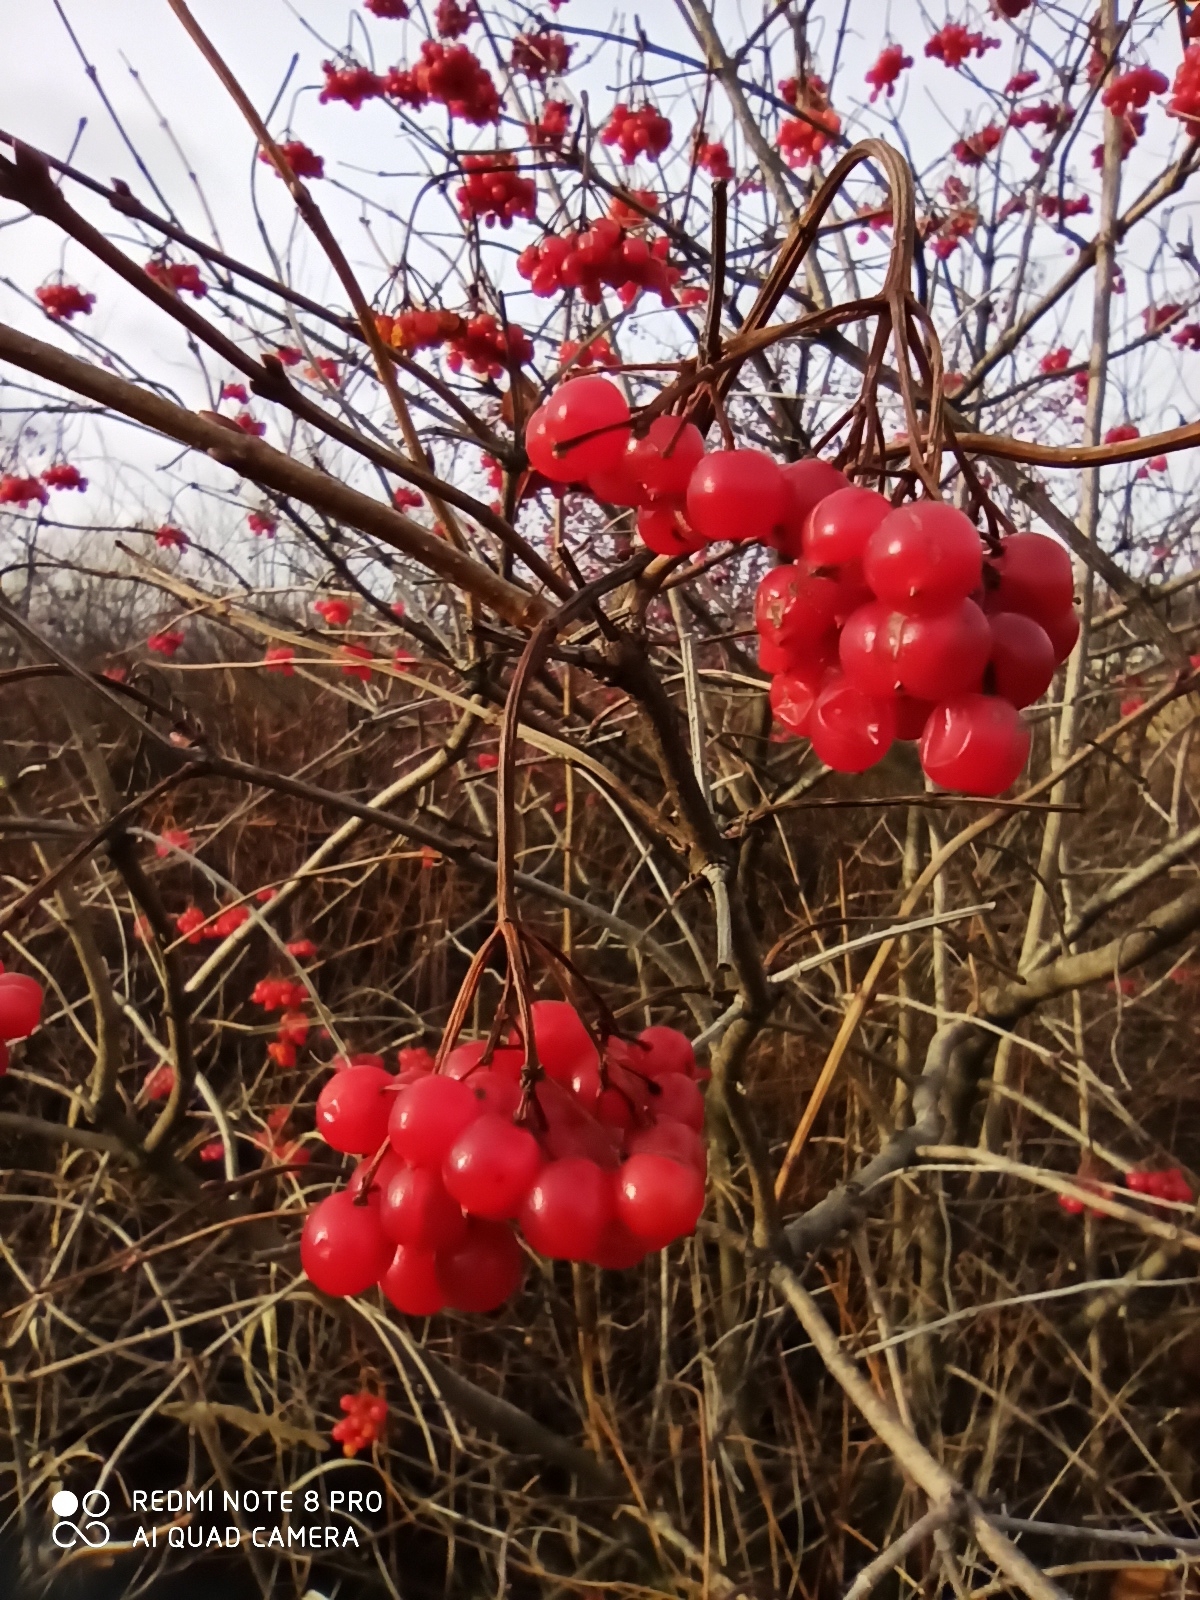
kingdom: Plantae
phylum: Tracheophyta
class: Magnoliopsida
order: Dipsacales
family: Viburnaceae
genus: Viburnum
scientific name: Viburnum opulus
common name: Guelder-rose
